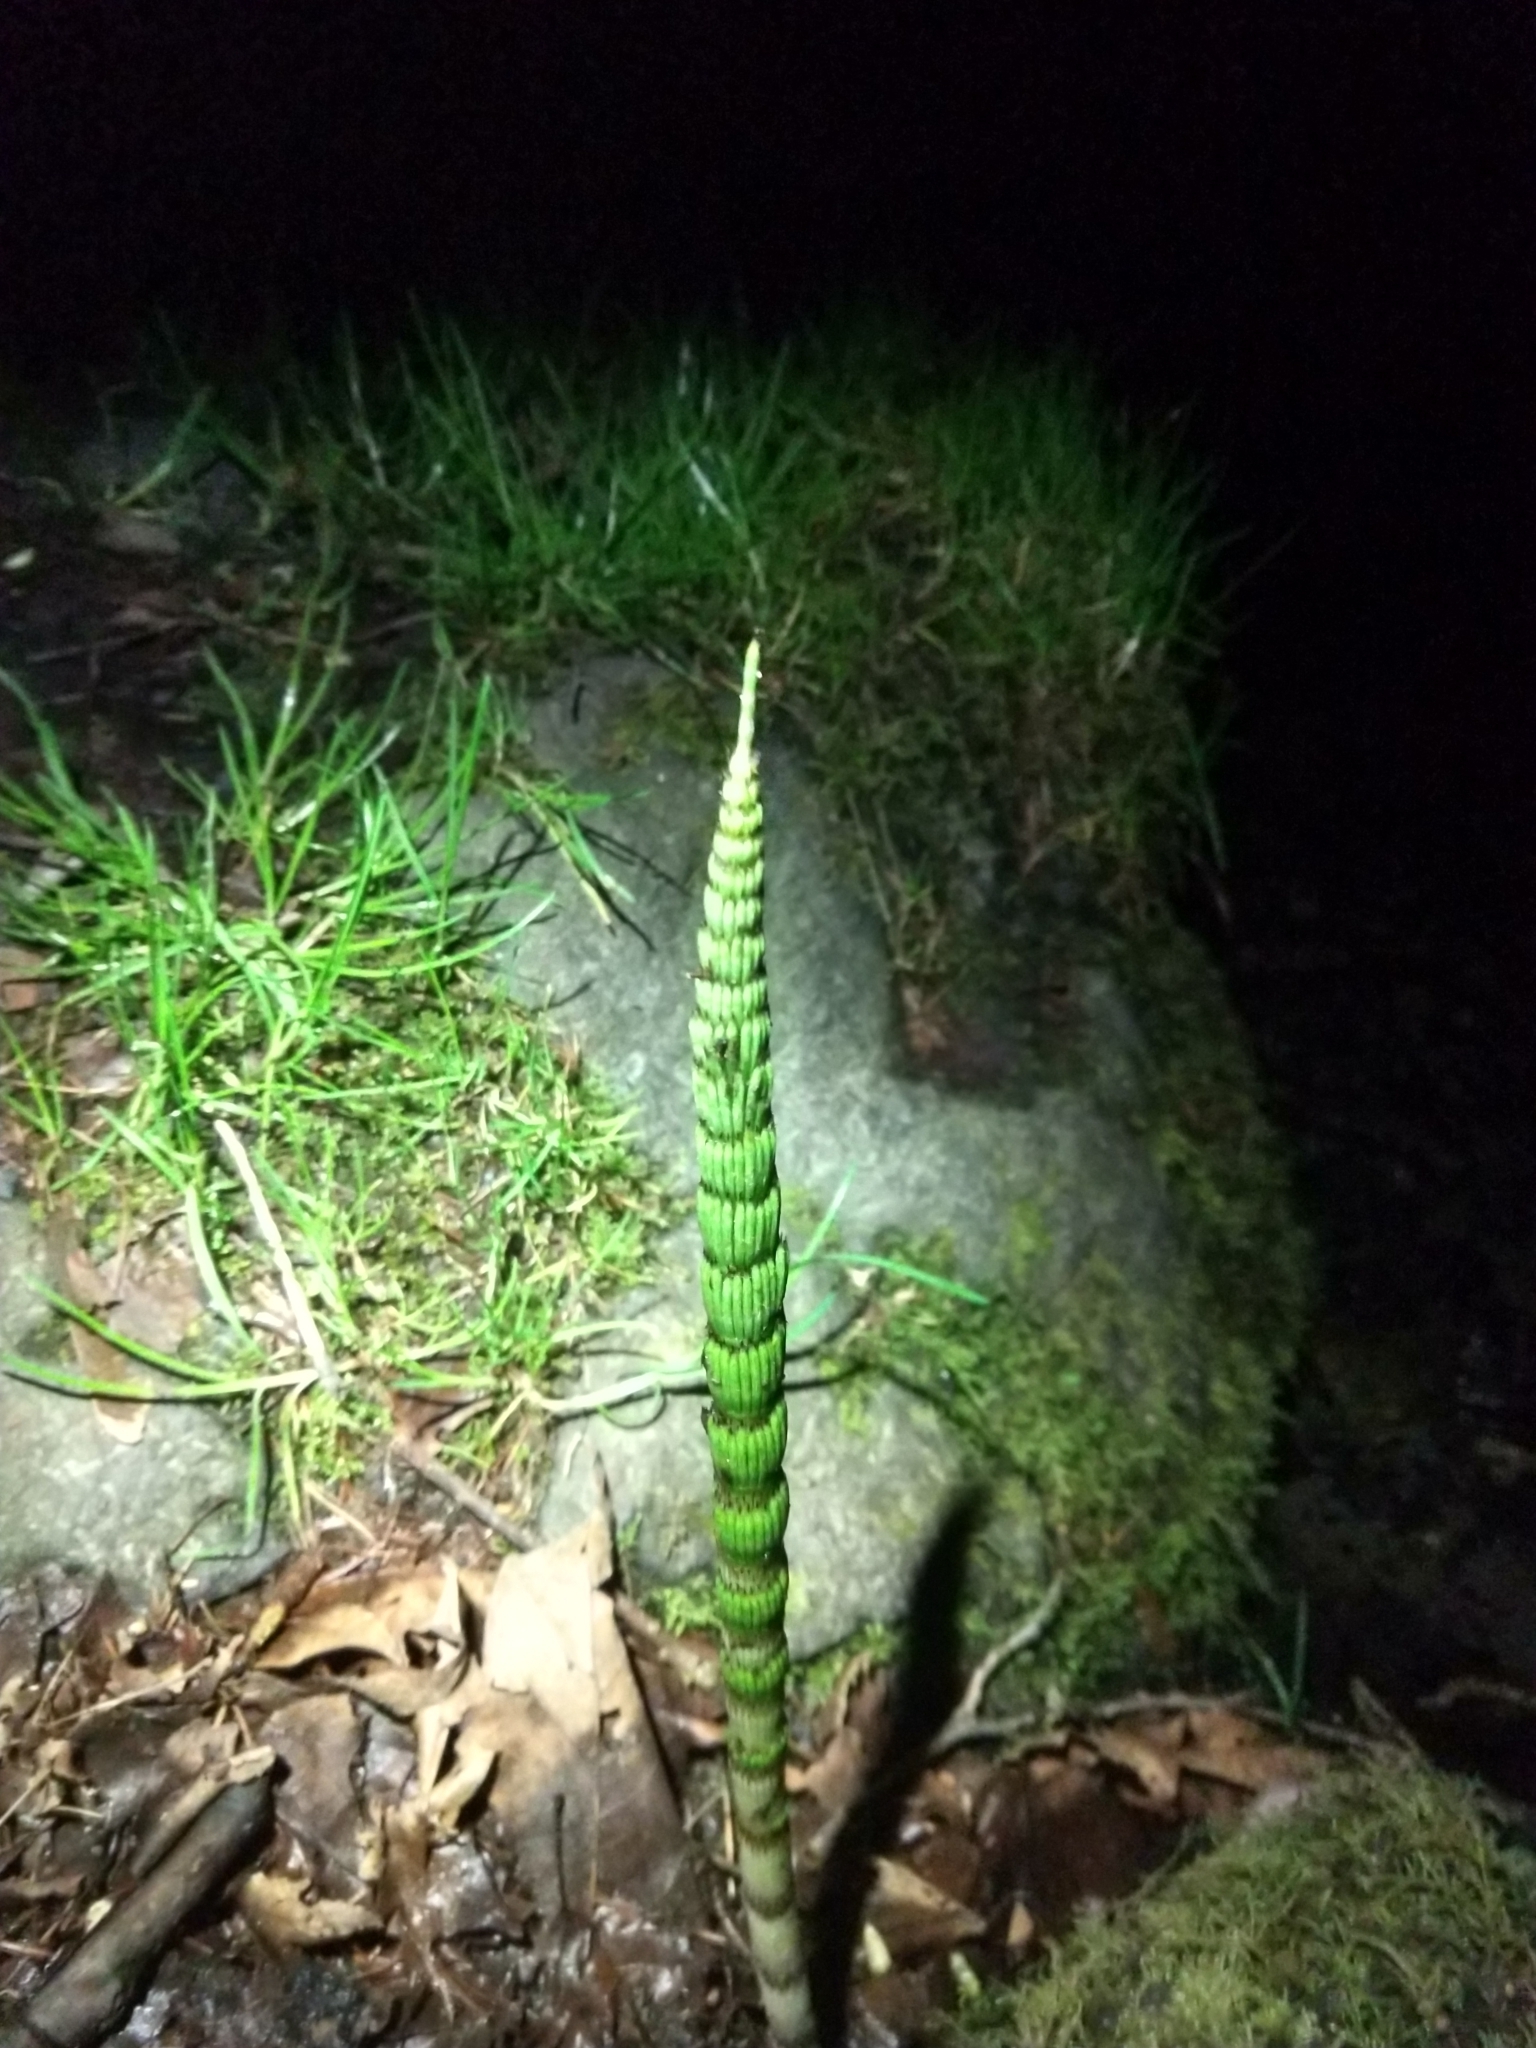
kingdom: Plantae
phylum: Tracheophyta
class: Polypodiopsida
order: Equisetales
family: Equisetaceae
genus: Equisetum
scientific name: Equisetum telmateia
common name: Great horsetail
